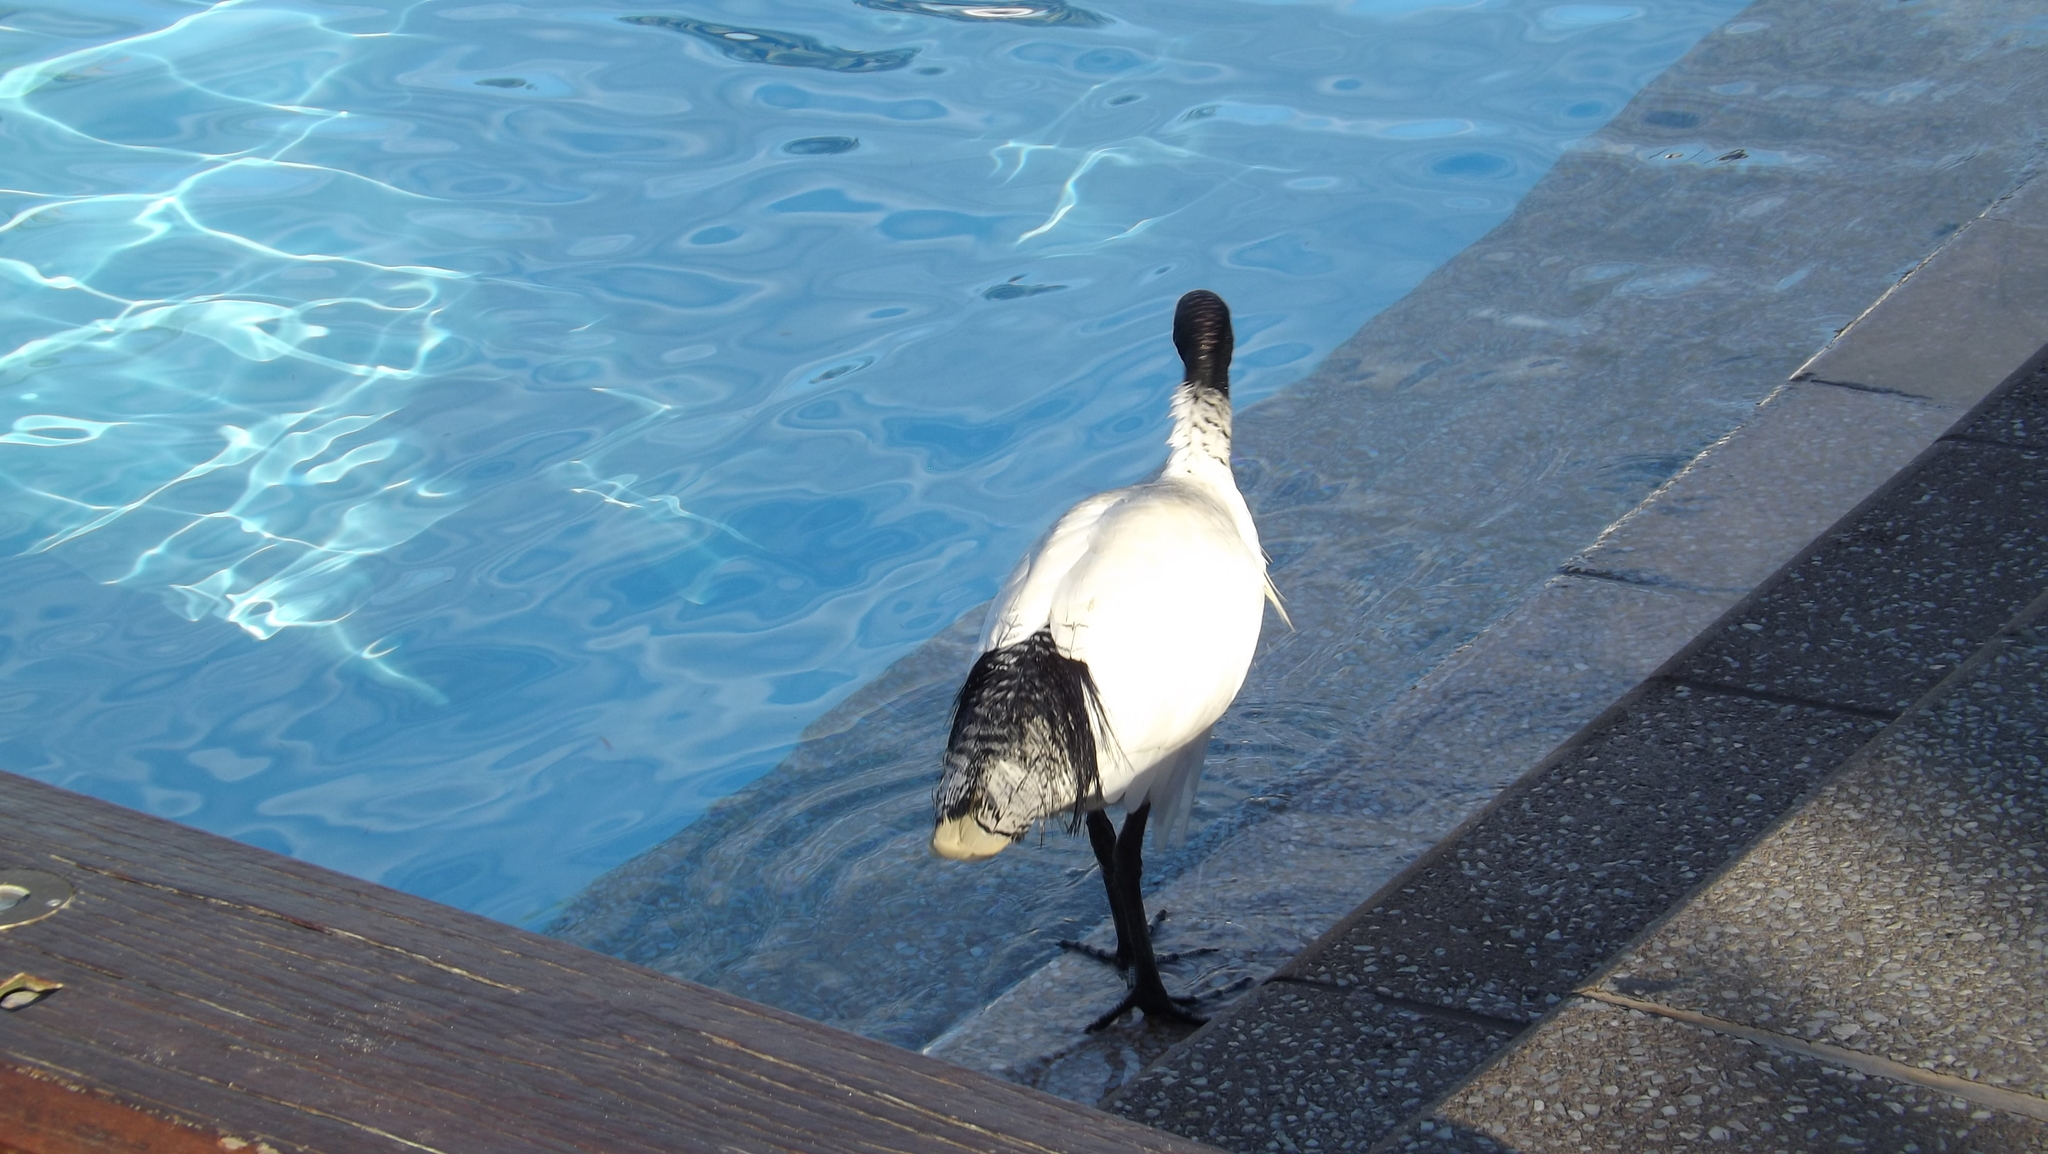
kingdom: Animalia
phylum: Chordata
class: Aves
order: Pelecaniformes
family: Threskiornithidae
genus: Threskiornis
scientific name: Threskiornis molucca
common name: Australian white ibis
